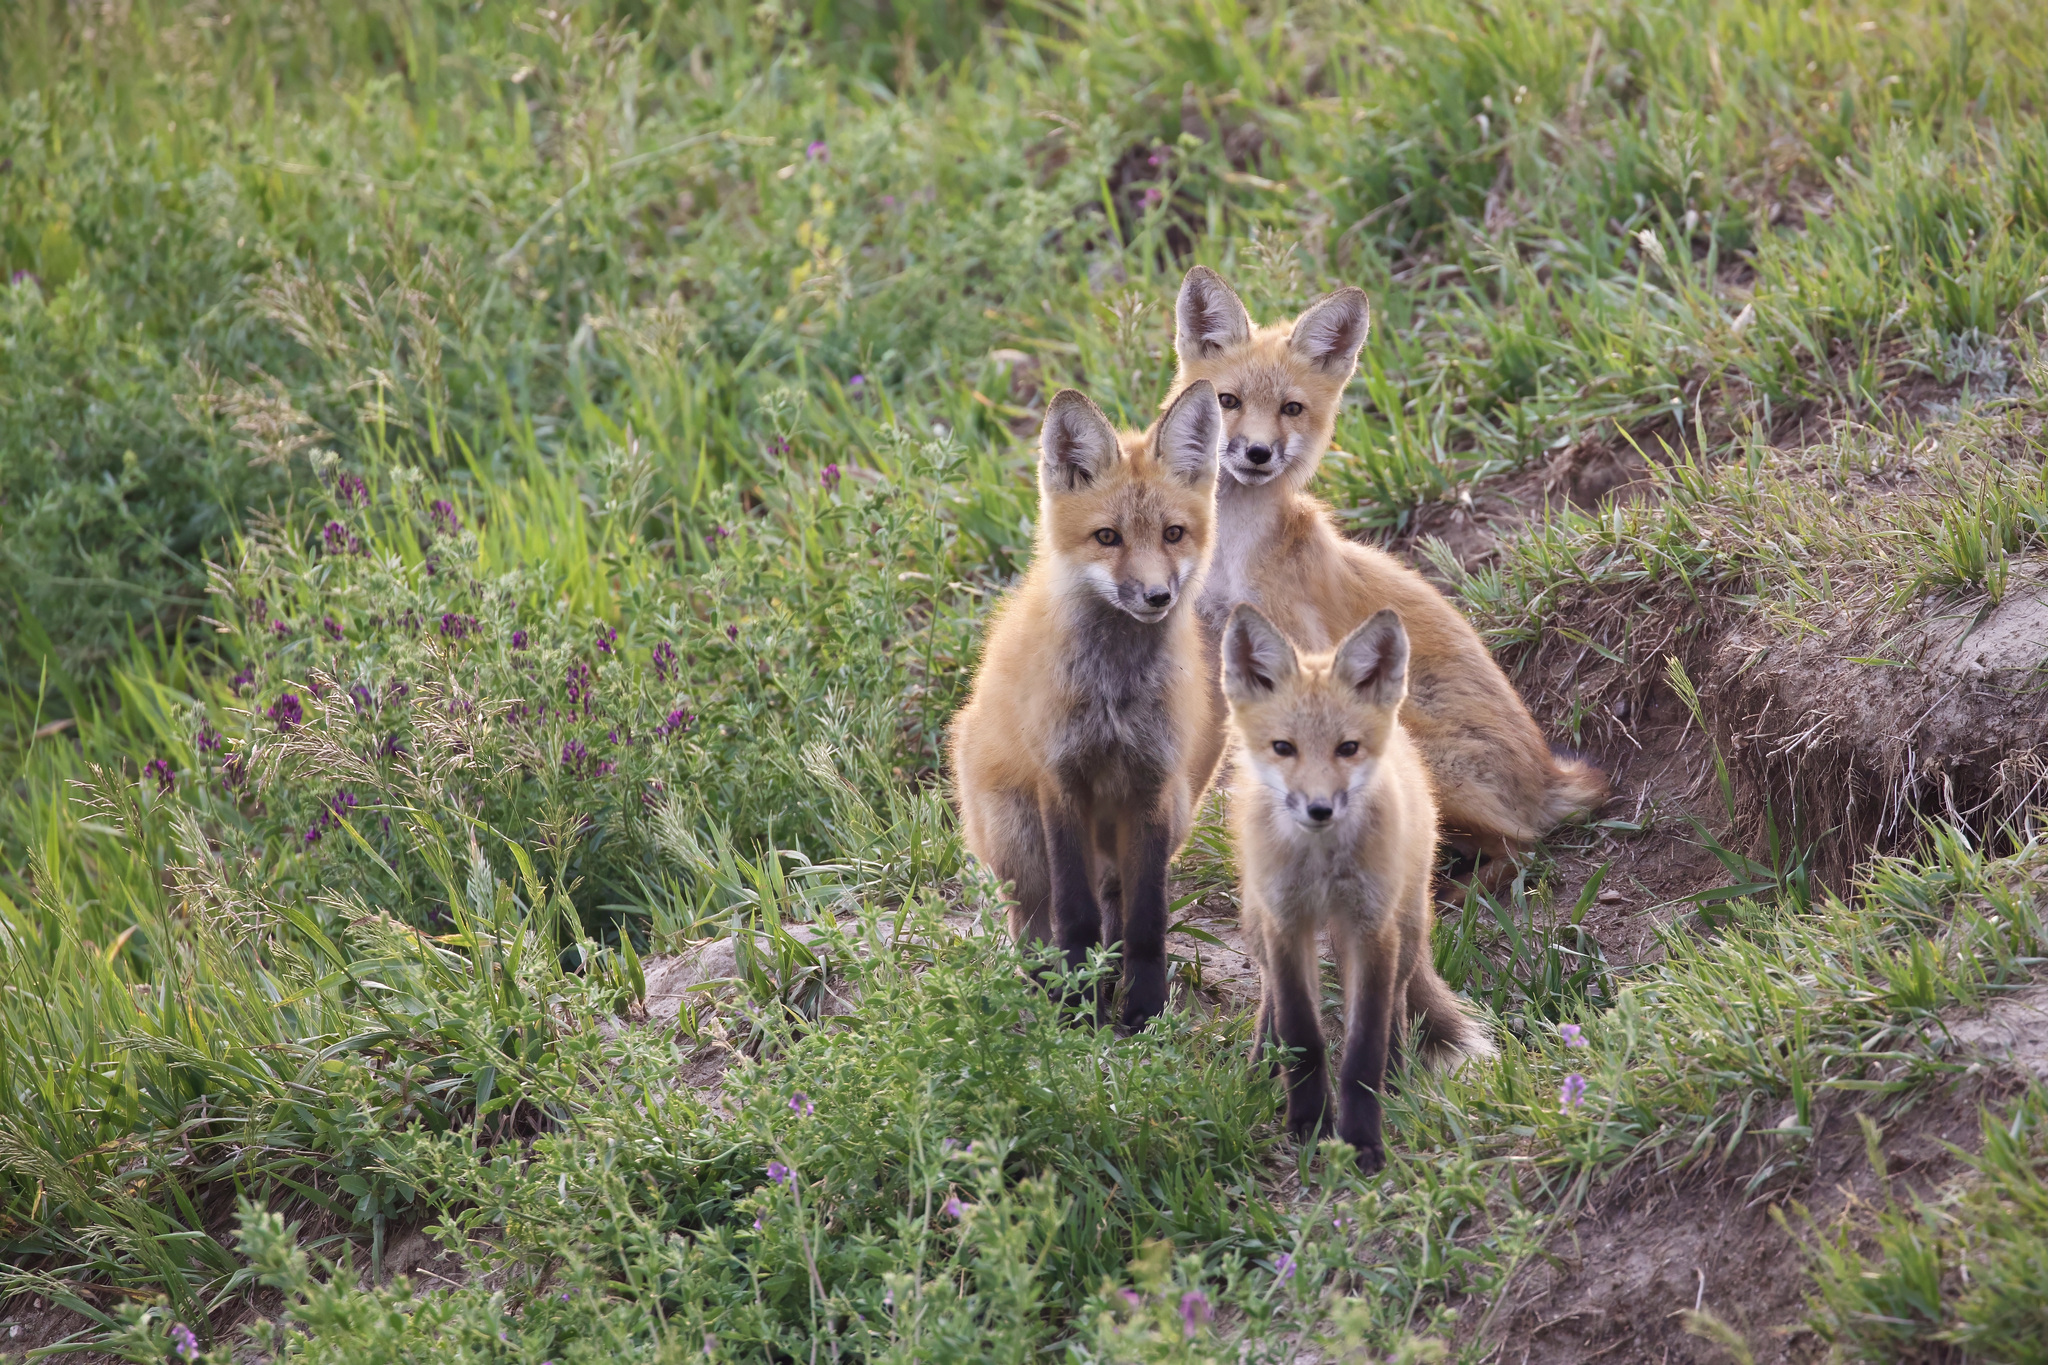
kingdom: Animalia
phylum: Chordata
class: Mammalia
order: Carnivora
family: Canidae
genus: Vulpes
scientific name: Vulpes vulpes
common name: Red fox
